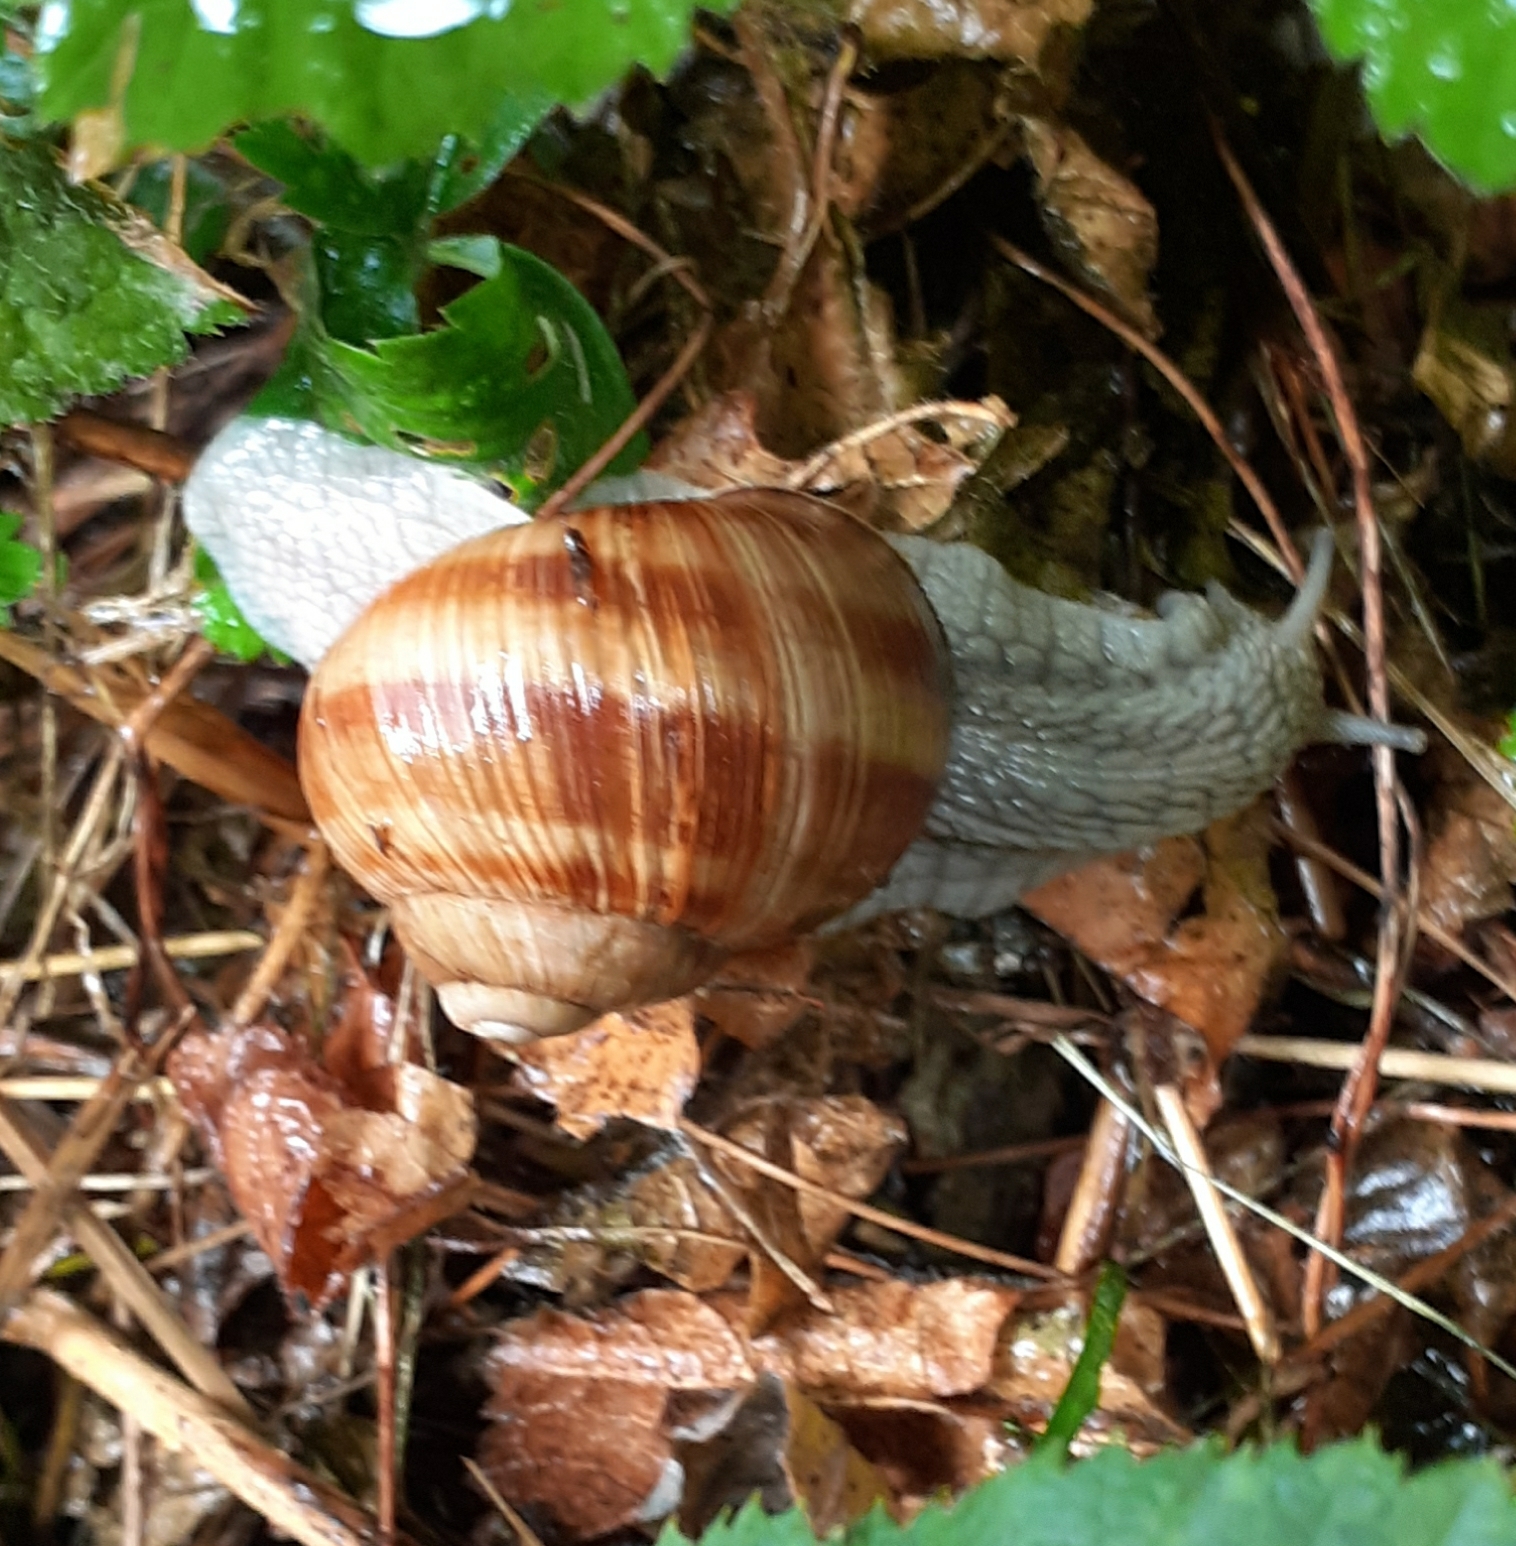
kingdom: Animalia
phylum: Mollusca
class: Gastropoda
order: Stylommatophora
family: Helicidae
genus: Helix
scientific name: Helix pomatia
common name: Roman snail
